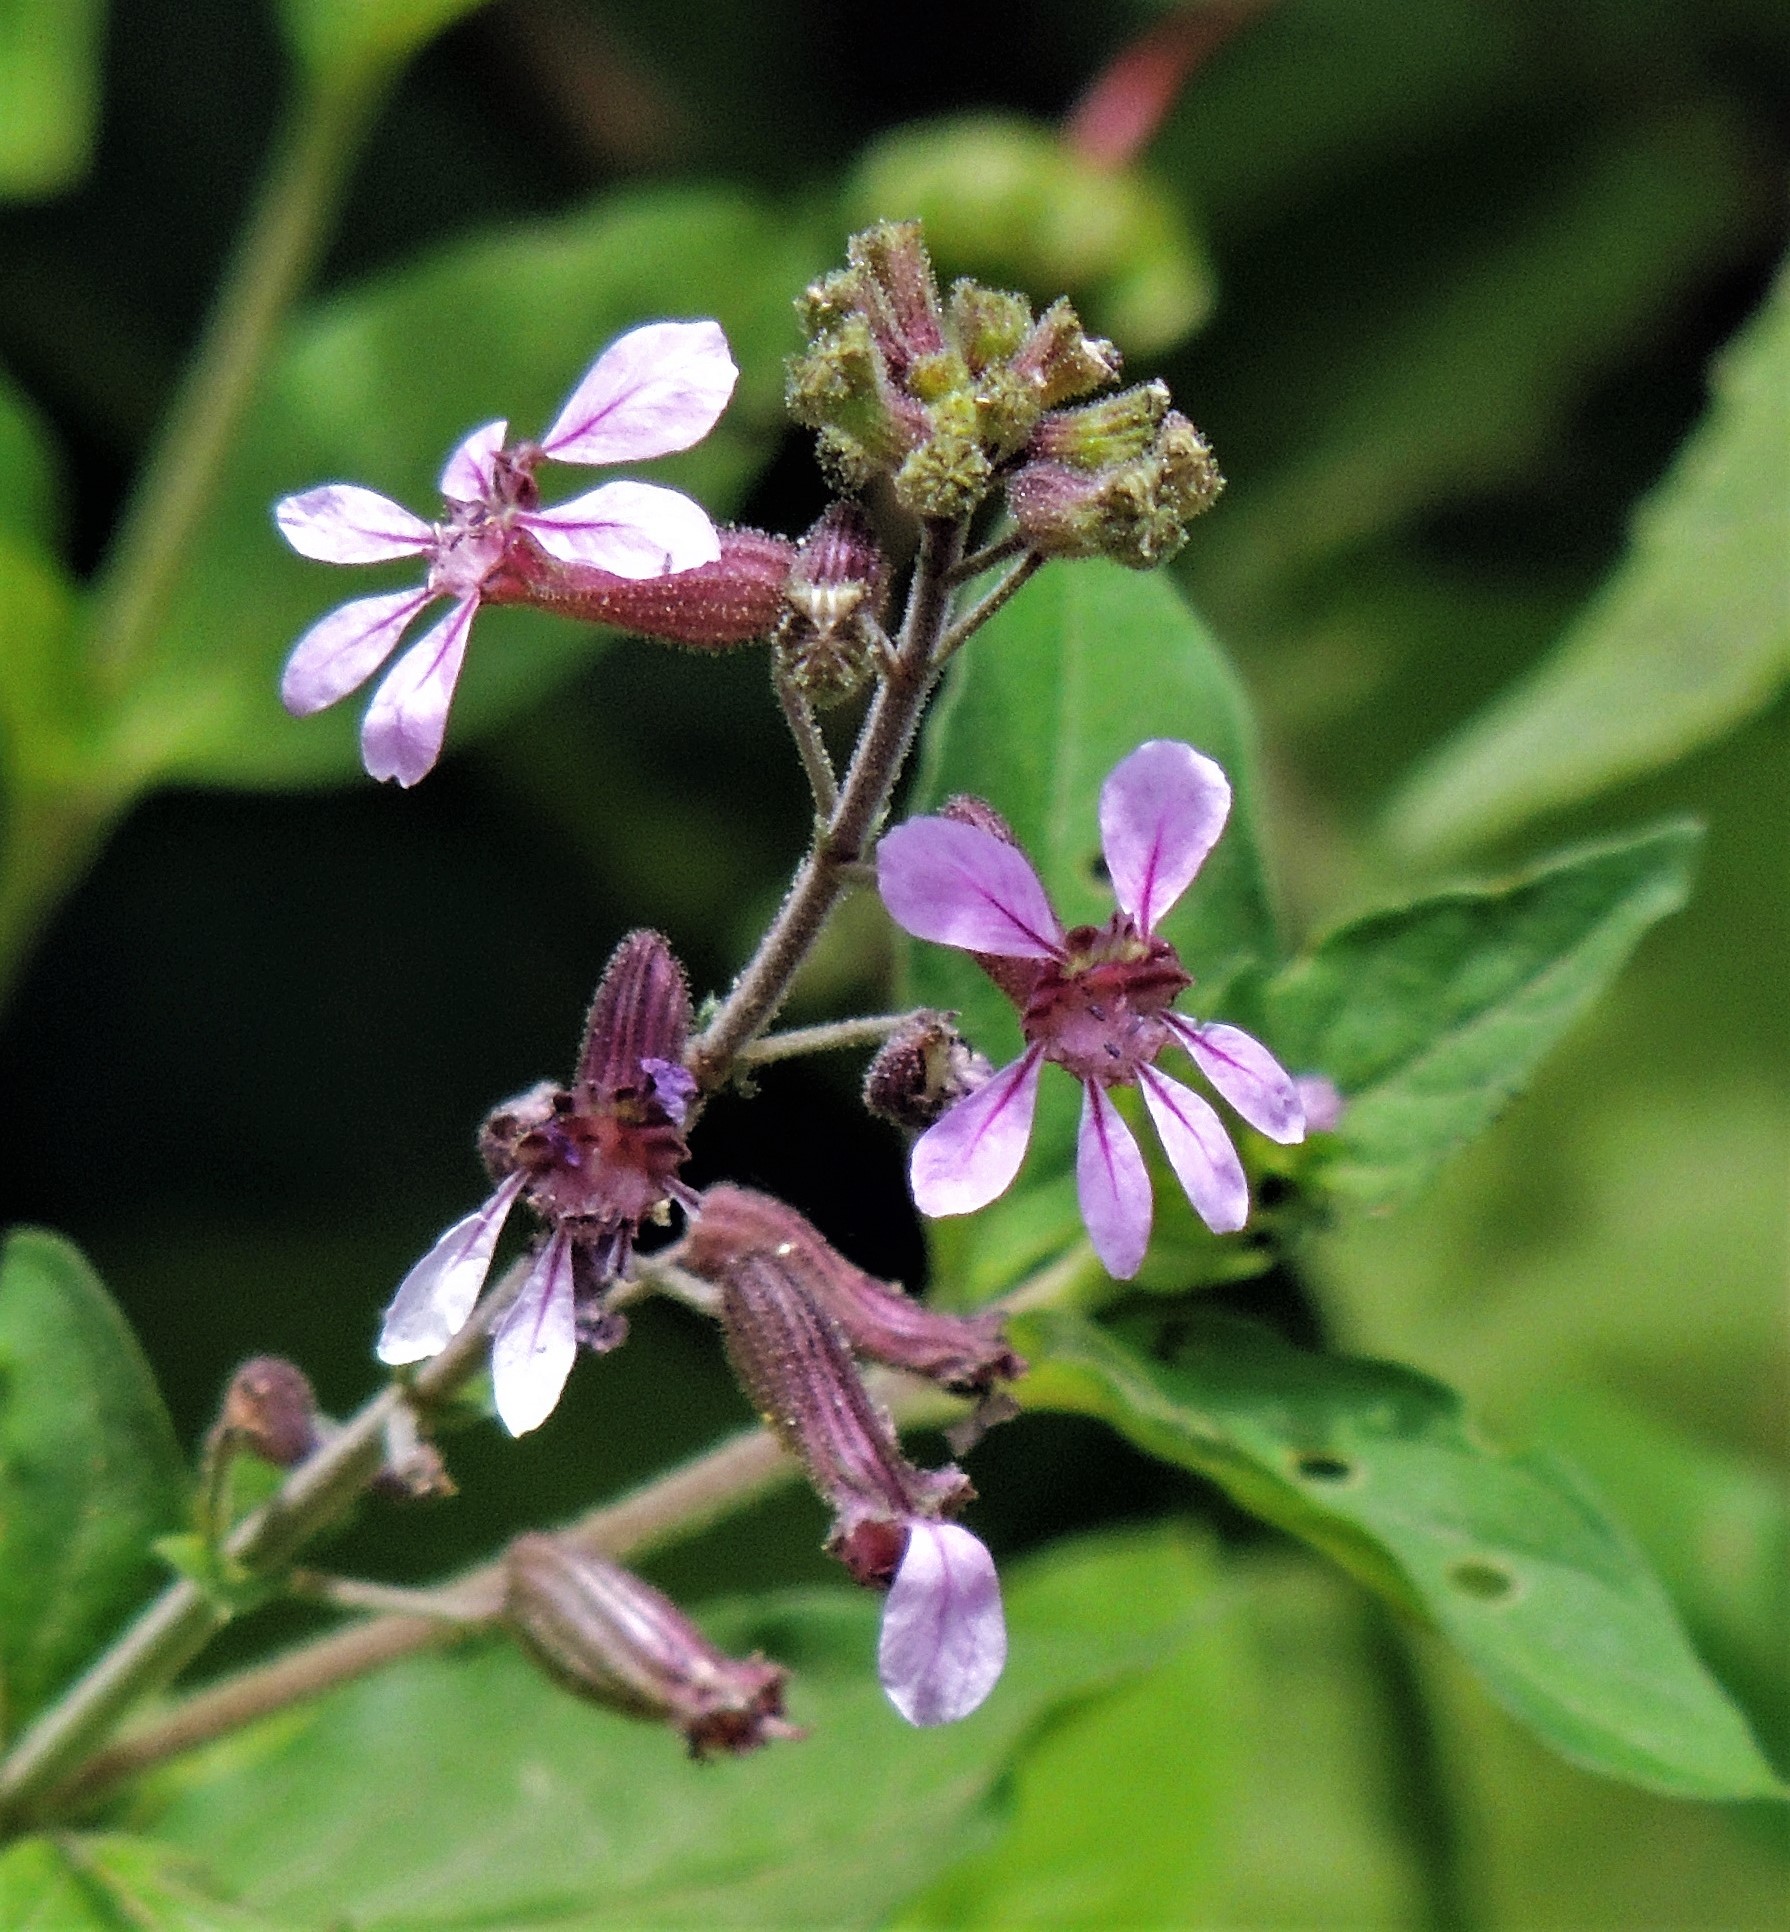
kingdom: Plantae
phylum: Tracheophyta
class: Magnoliopsida
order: Myrtales
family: Lythraceae
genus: Cuphea
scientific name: Cuphea racemosa
